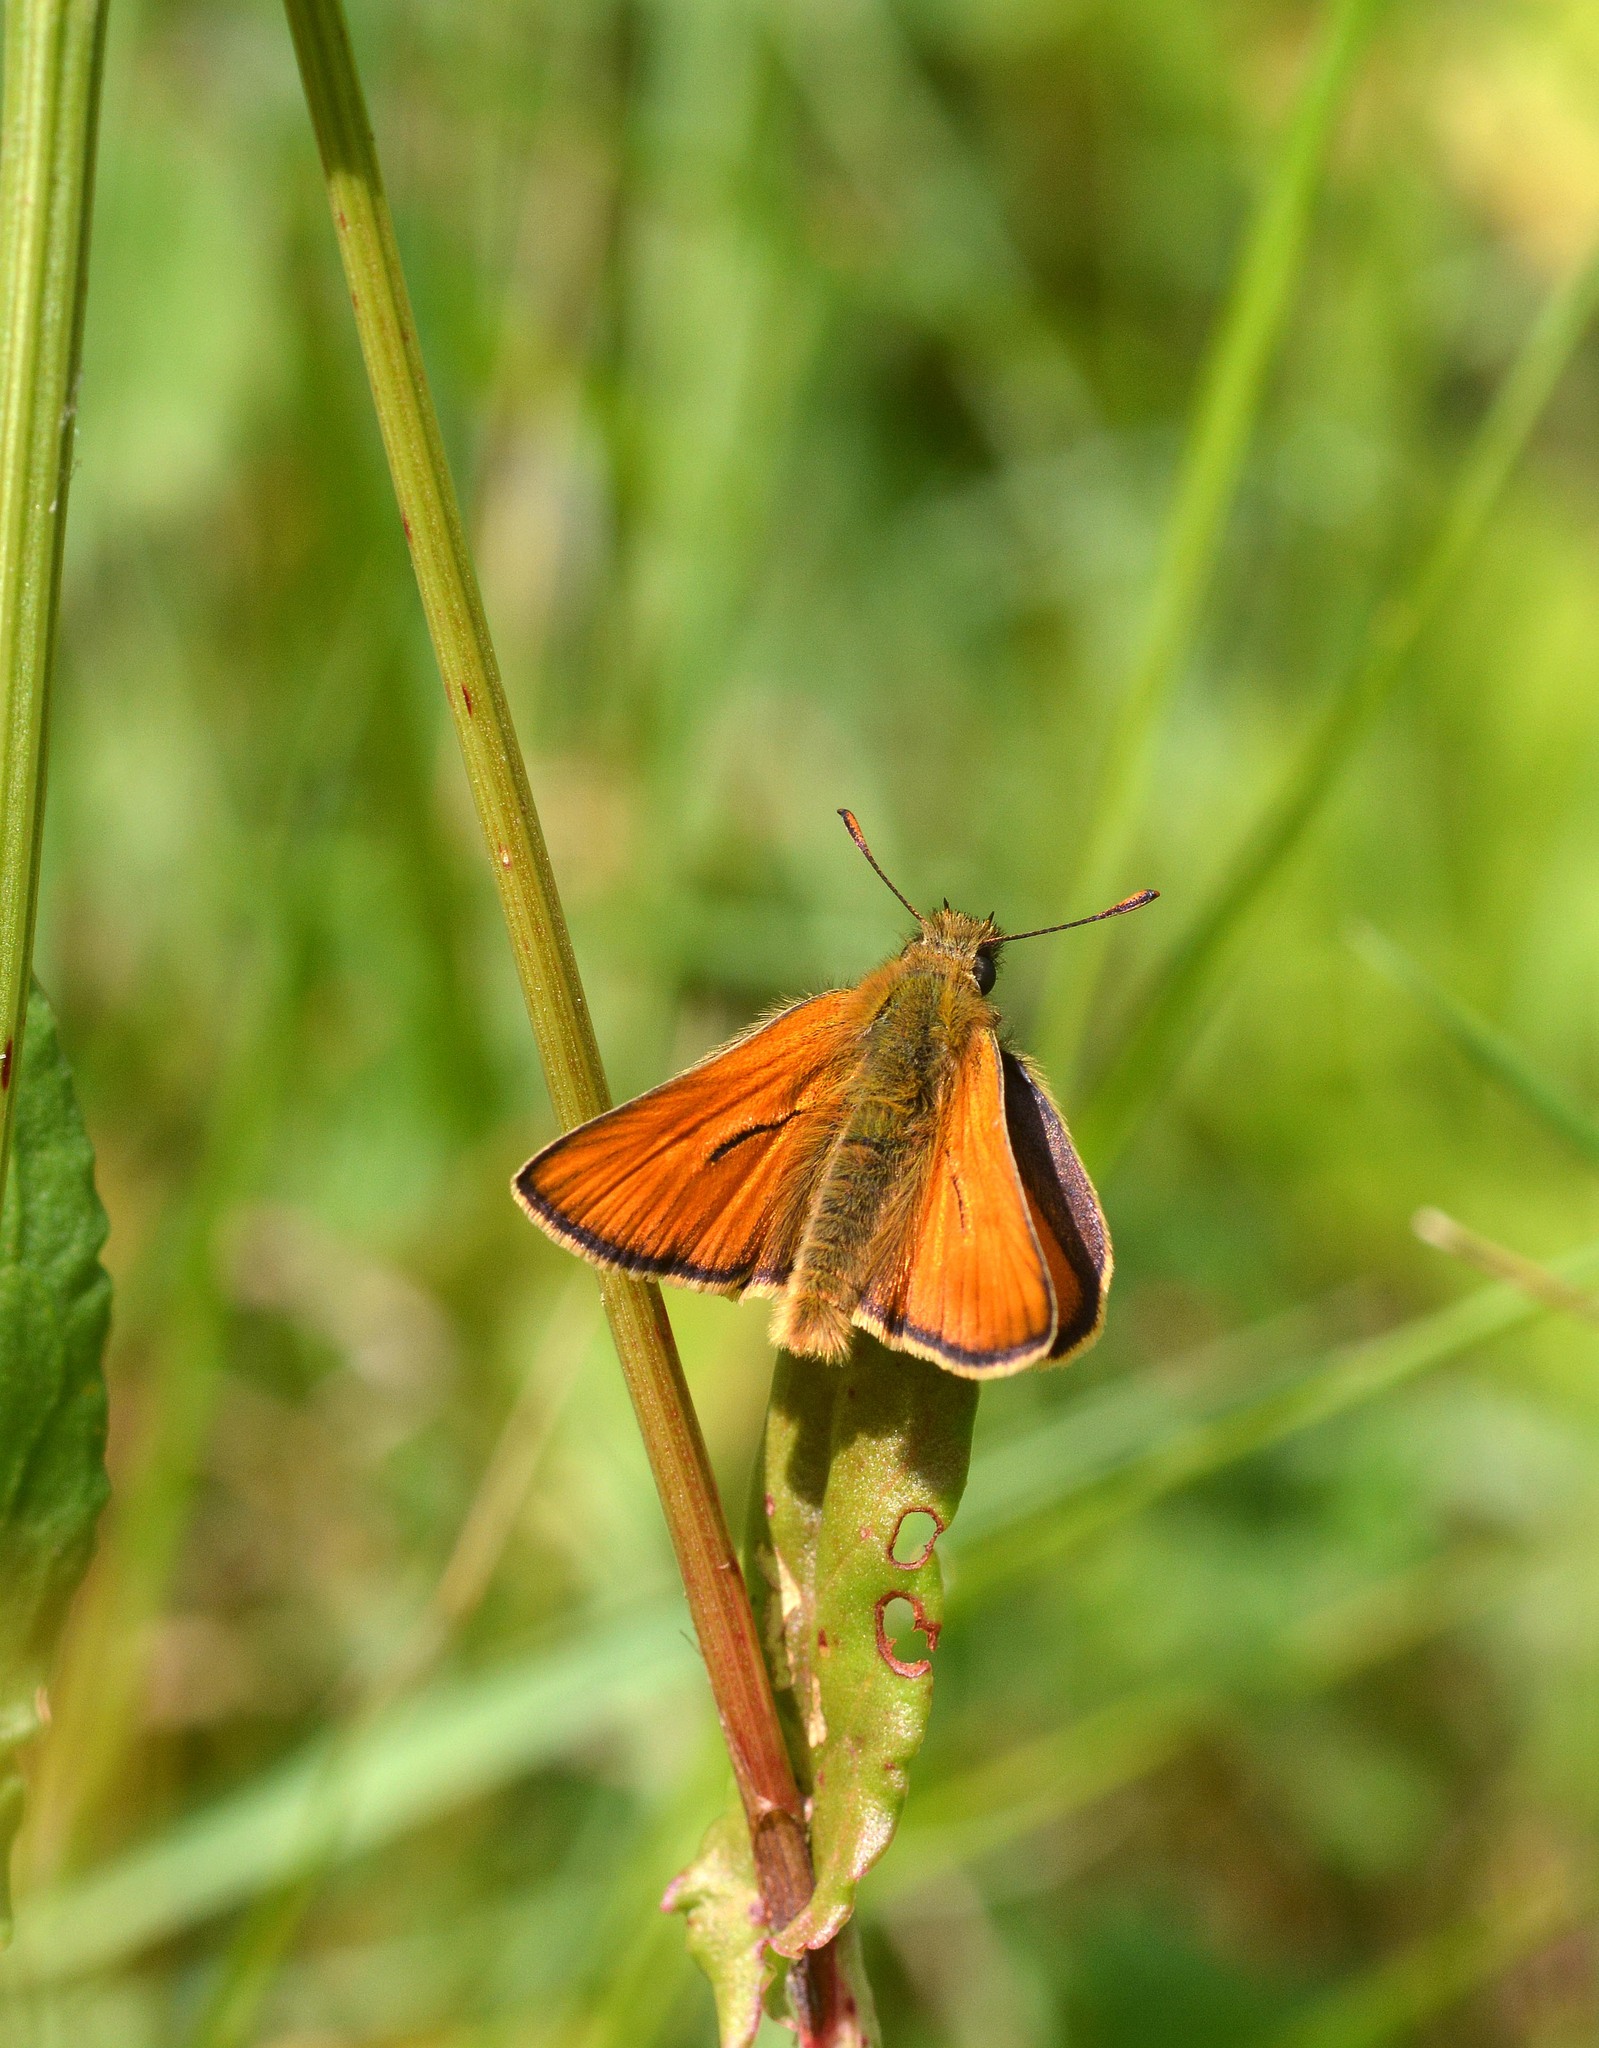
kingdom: Animalia
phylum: Arthropoda
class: Insecta
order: Lepidoptera
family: Hesperiidae
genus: Thymelicus
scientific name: Thymelicus sylvestris
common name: Small skipper
